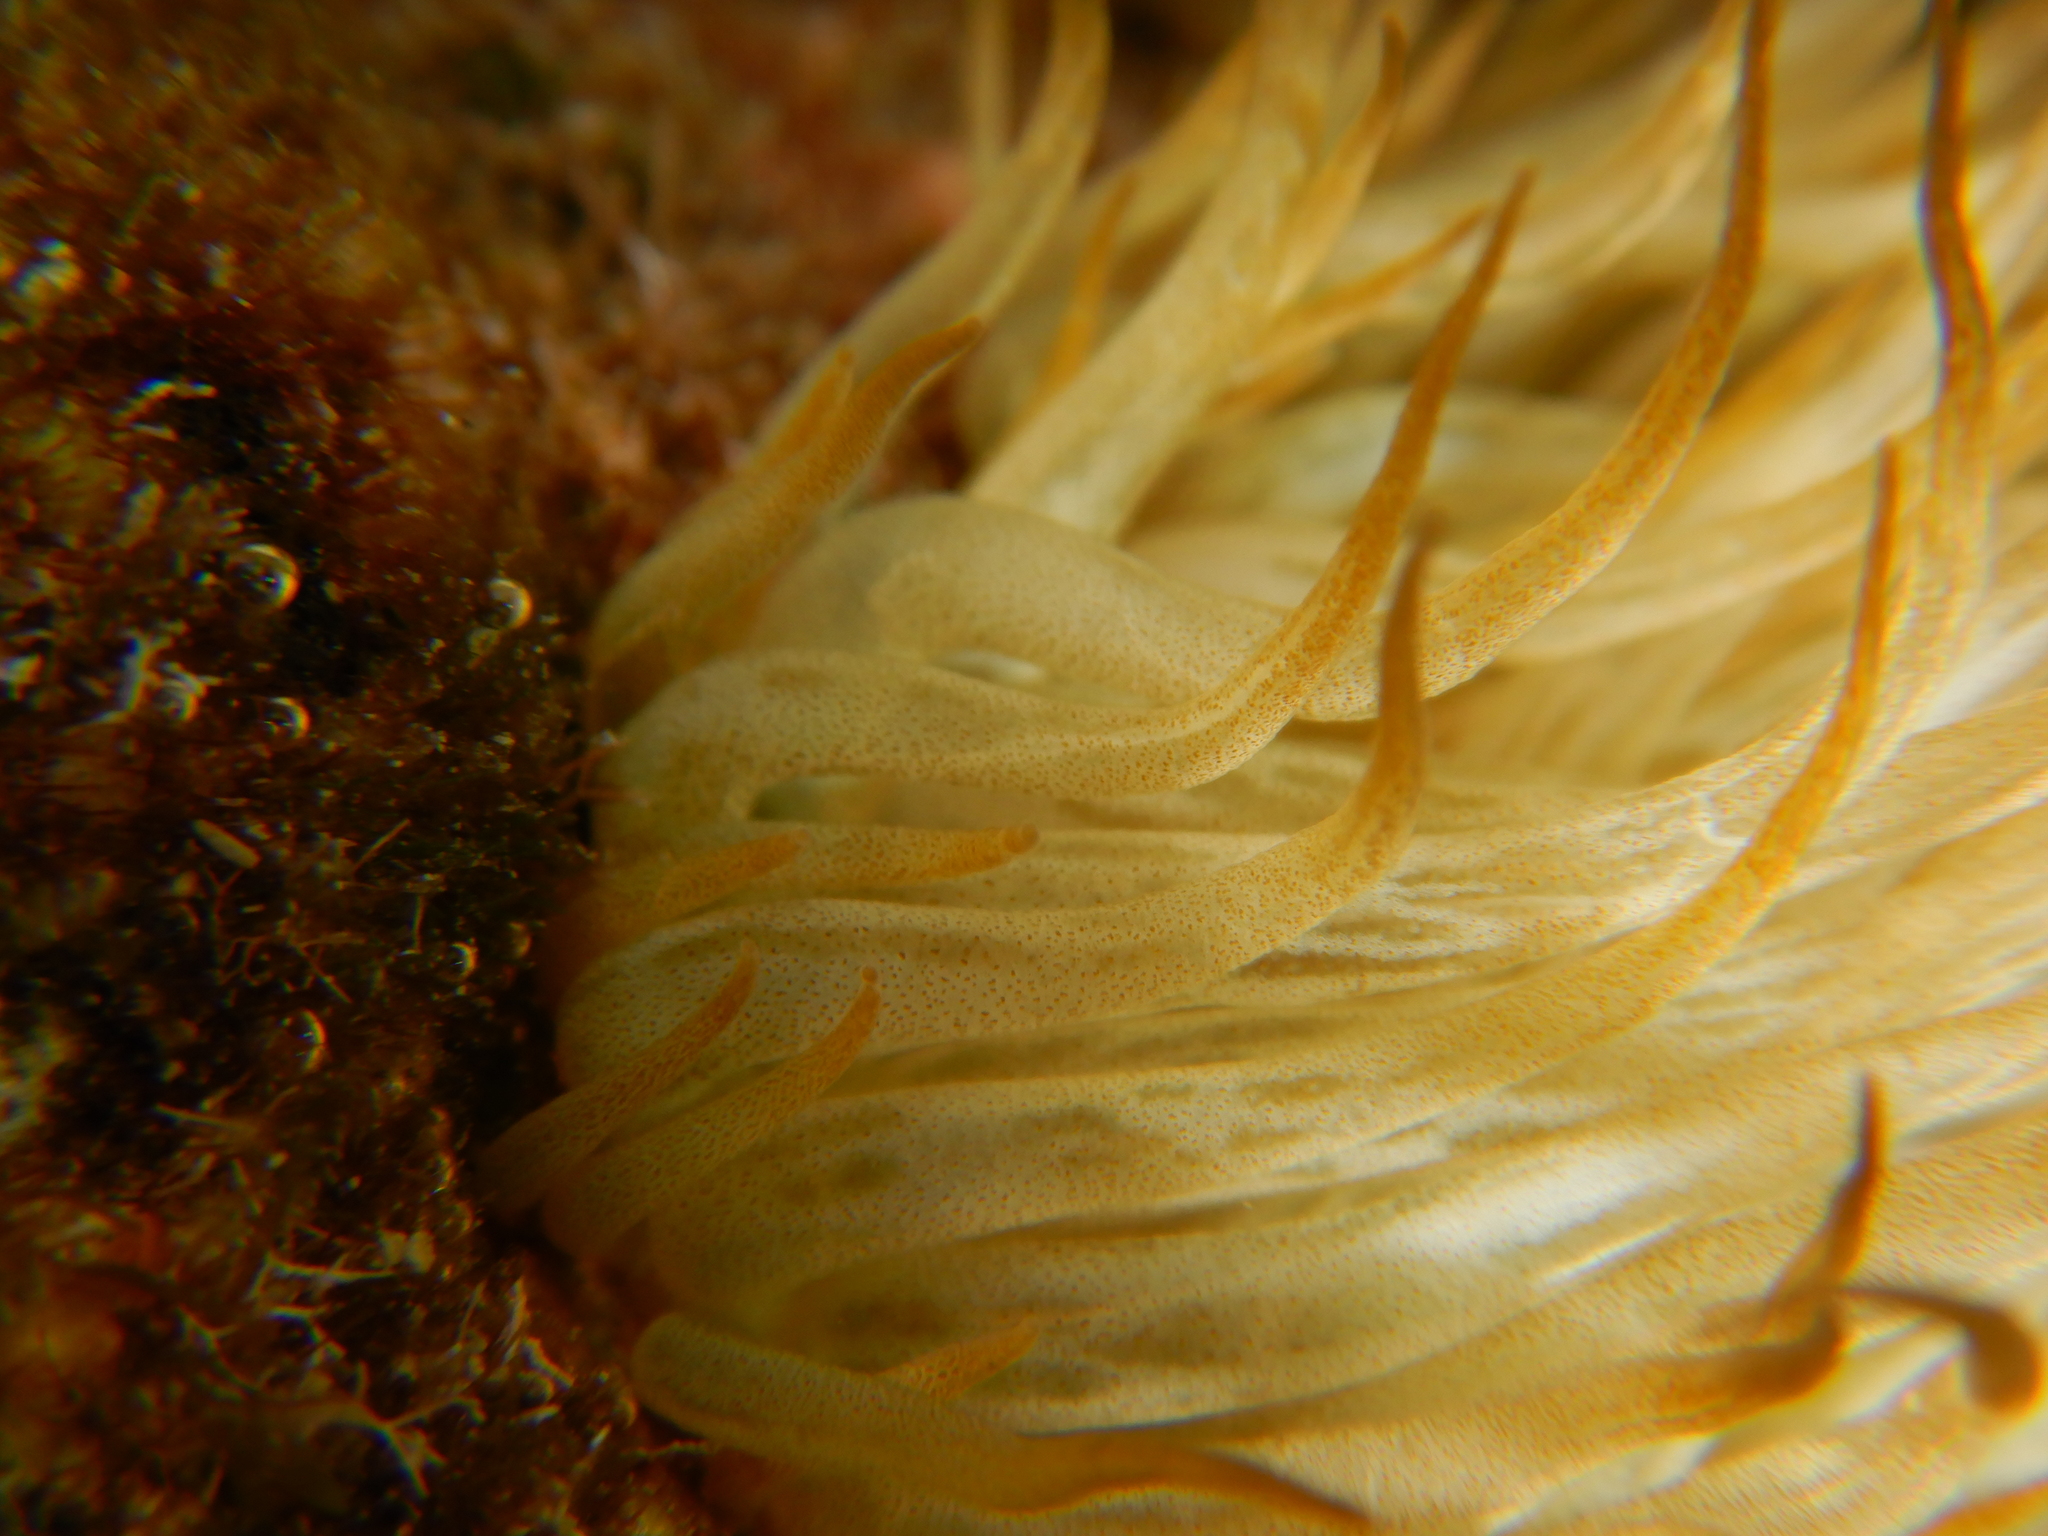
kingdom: Animalia
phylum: Cnidaria
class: Anthozoa
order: Actiniaria
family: Aiptasiidae
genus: Aiptasia
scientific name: Aiptasia mutabilis
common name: Trumpet anemone
